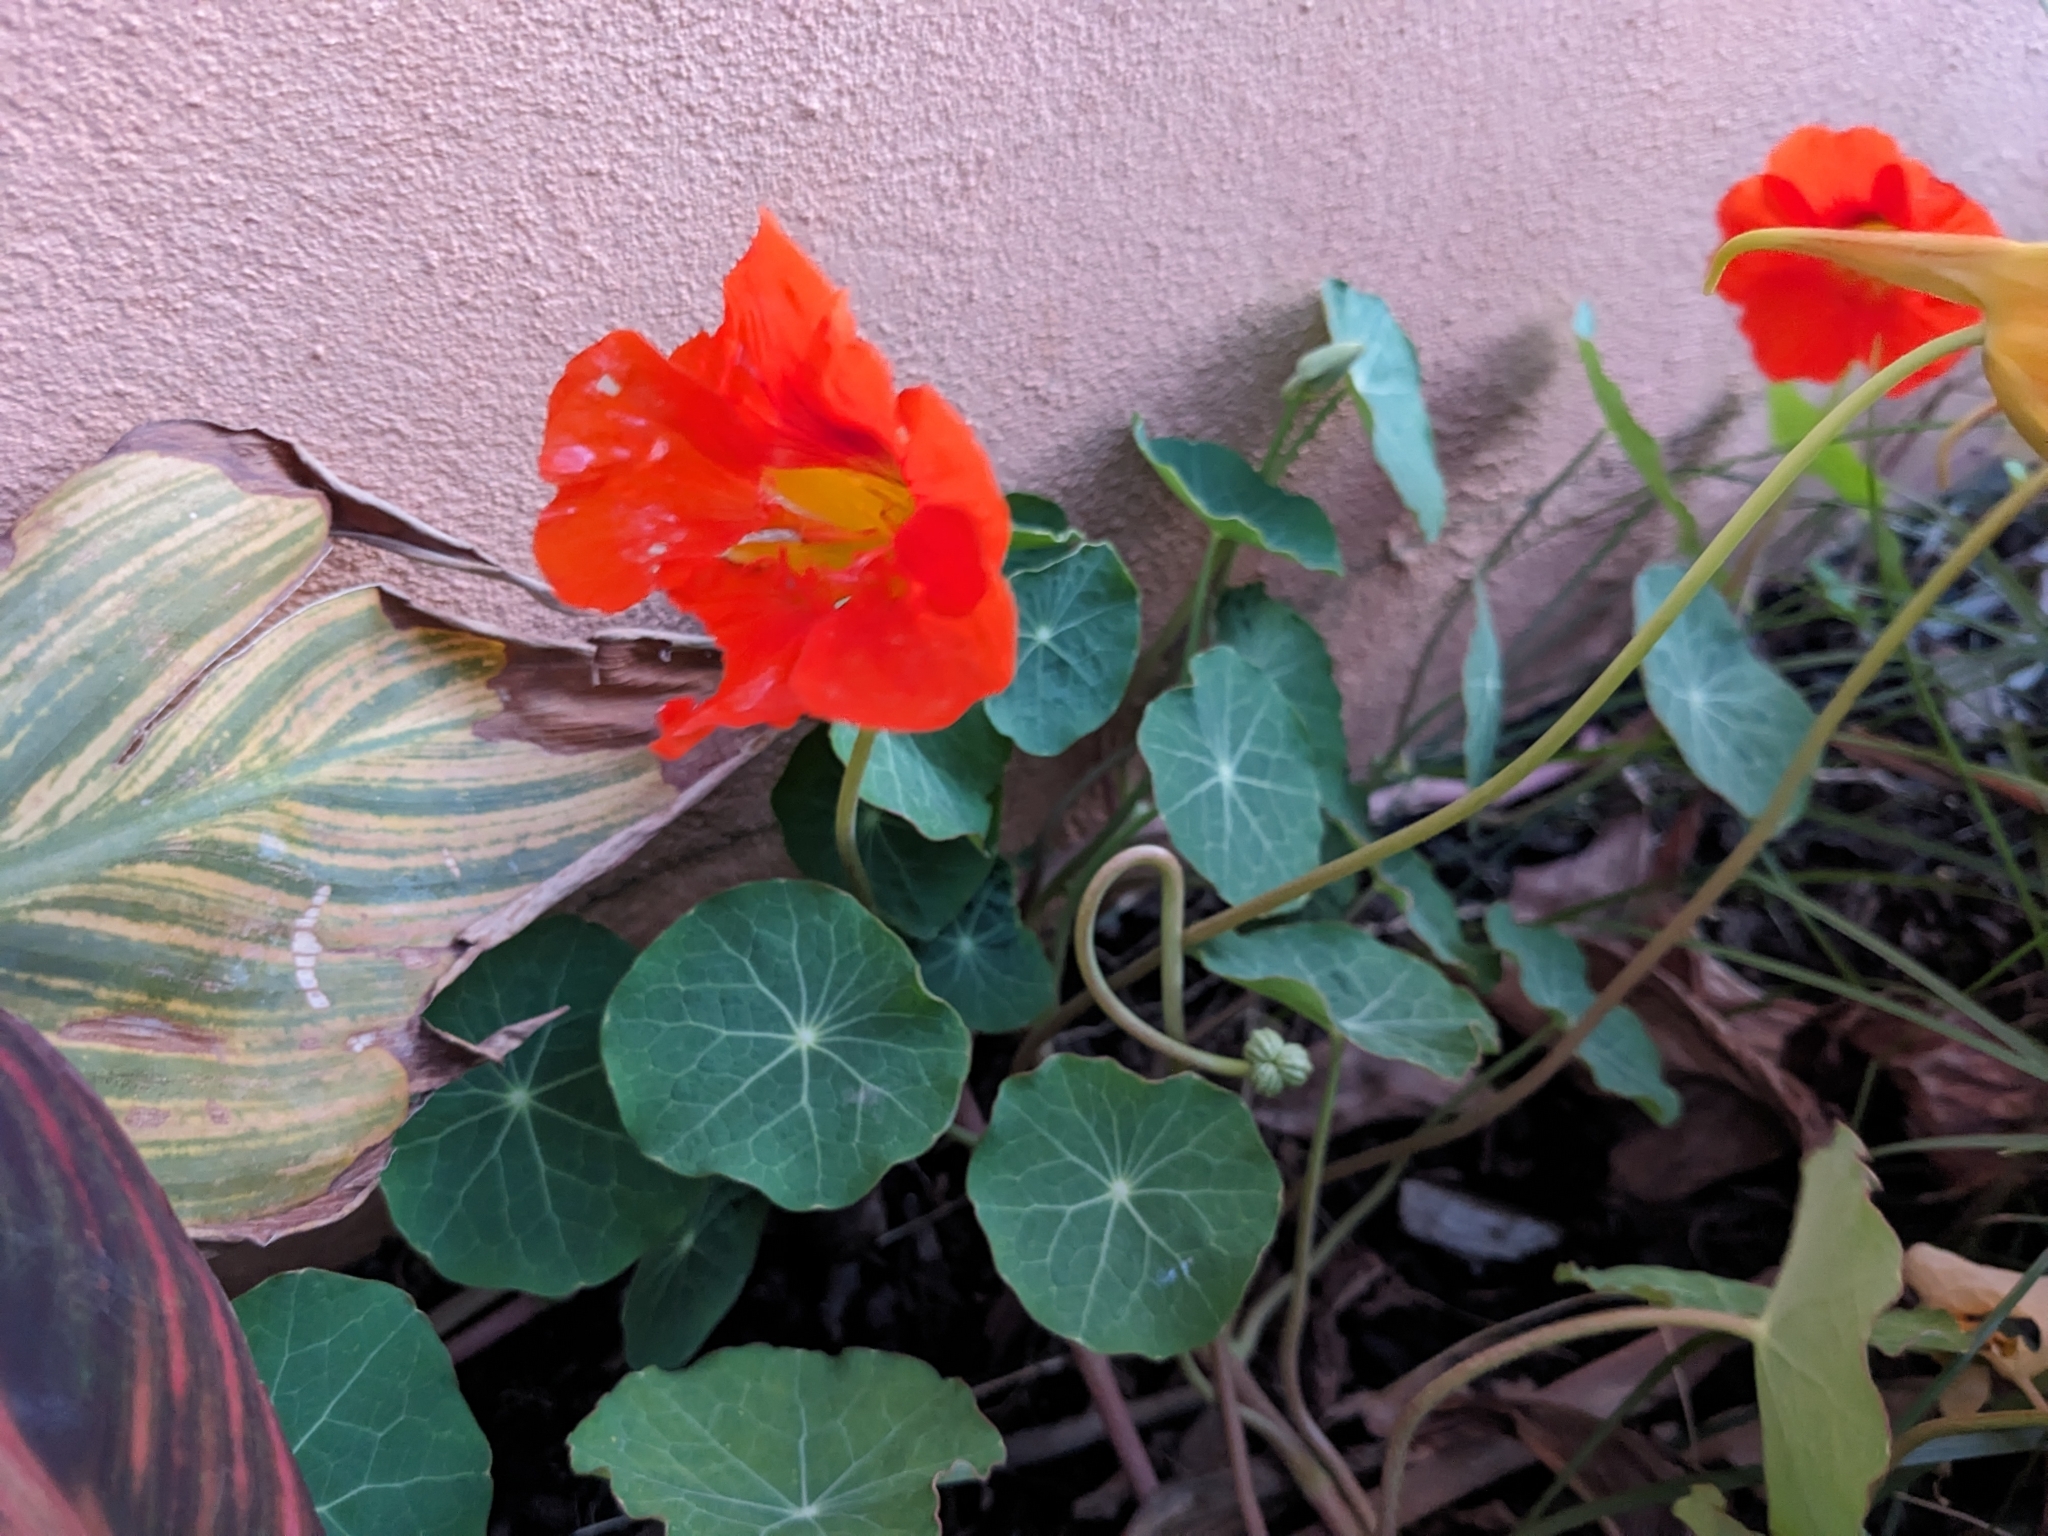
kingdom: Plantae
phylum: Tracheophyta
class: Magnoliopsida
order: Brassicales
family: Tropaeolaceae
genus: Tropaeolum
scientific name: Tropaeolum majus
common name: Nasturtium
